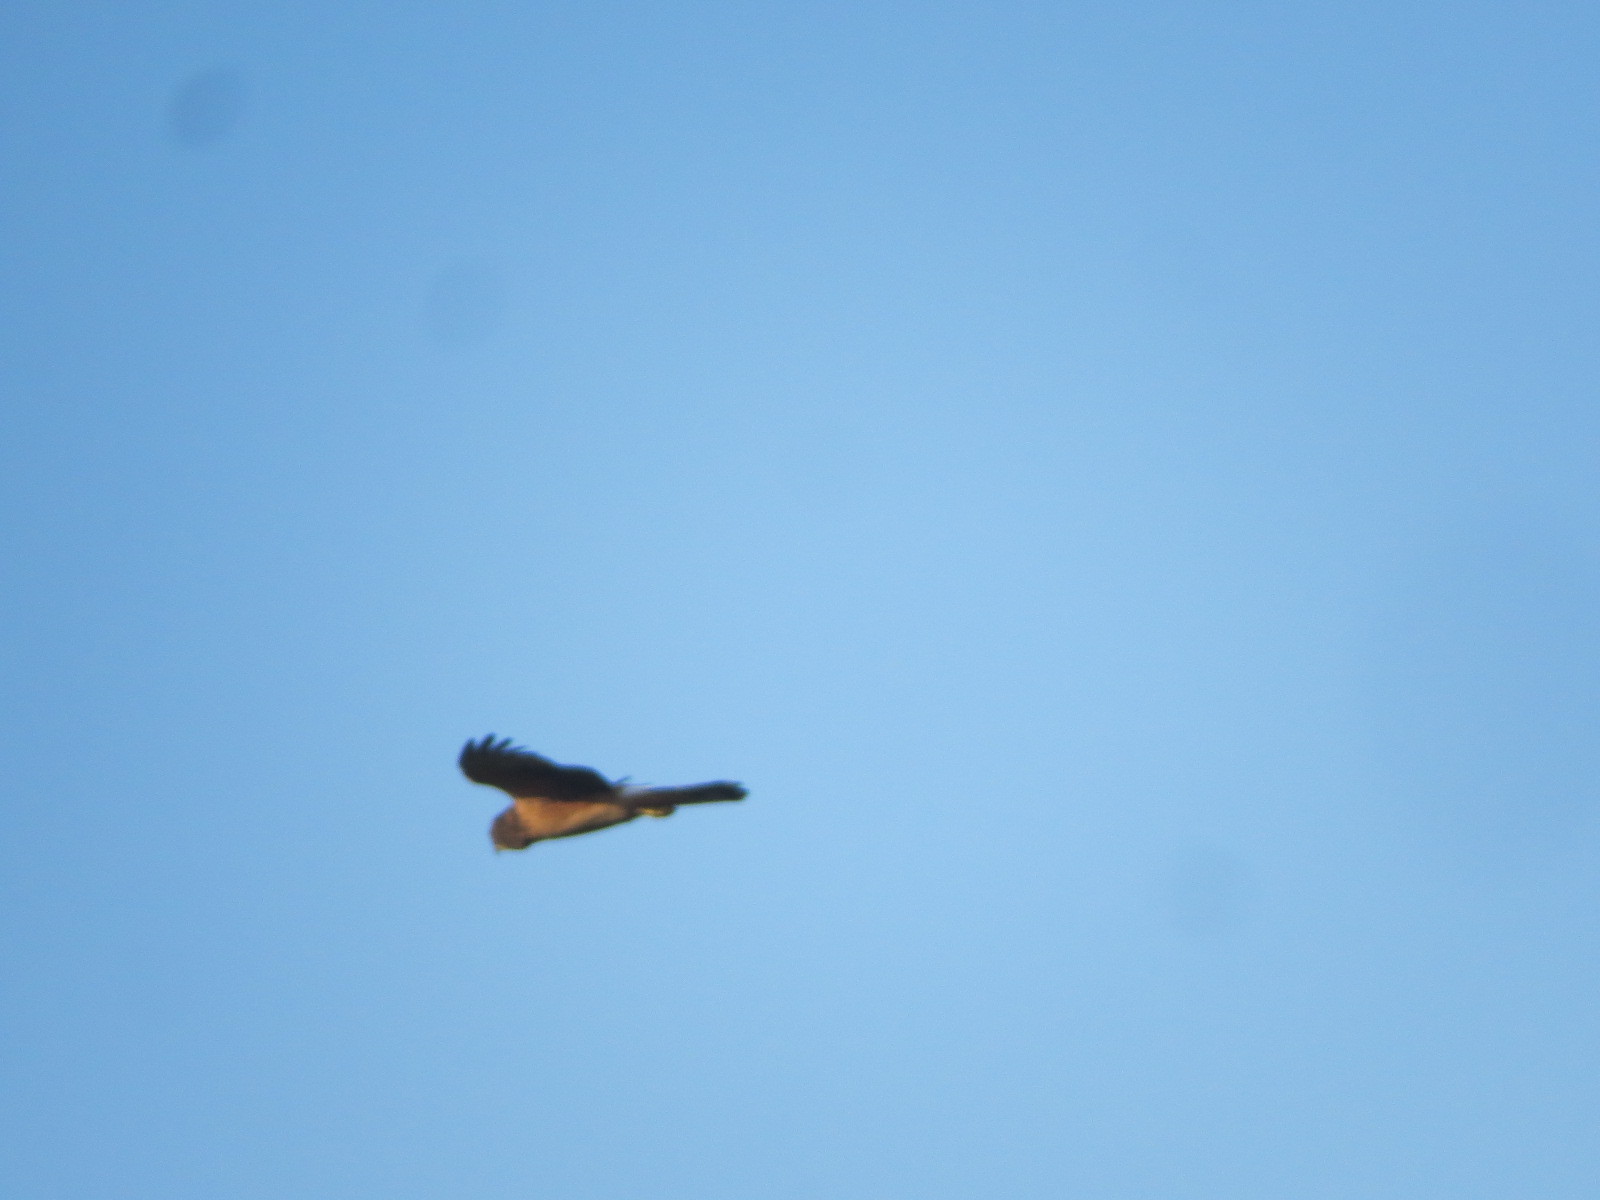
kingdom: Animalia
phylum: Chordata
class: Aves
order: Accipitriformes
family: Accipitridae
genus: Circus
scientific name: Circus cyaneus
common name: Hen harrier
